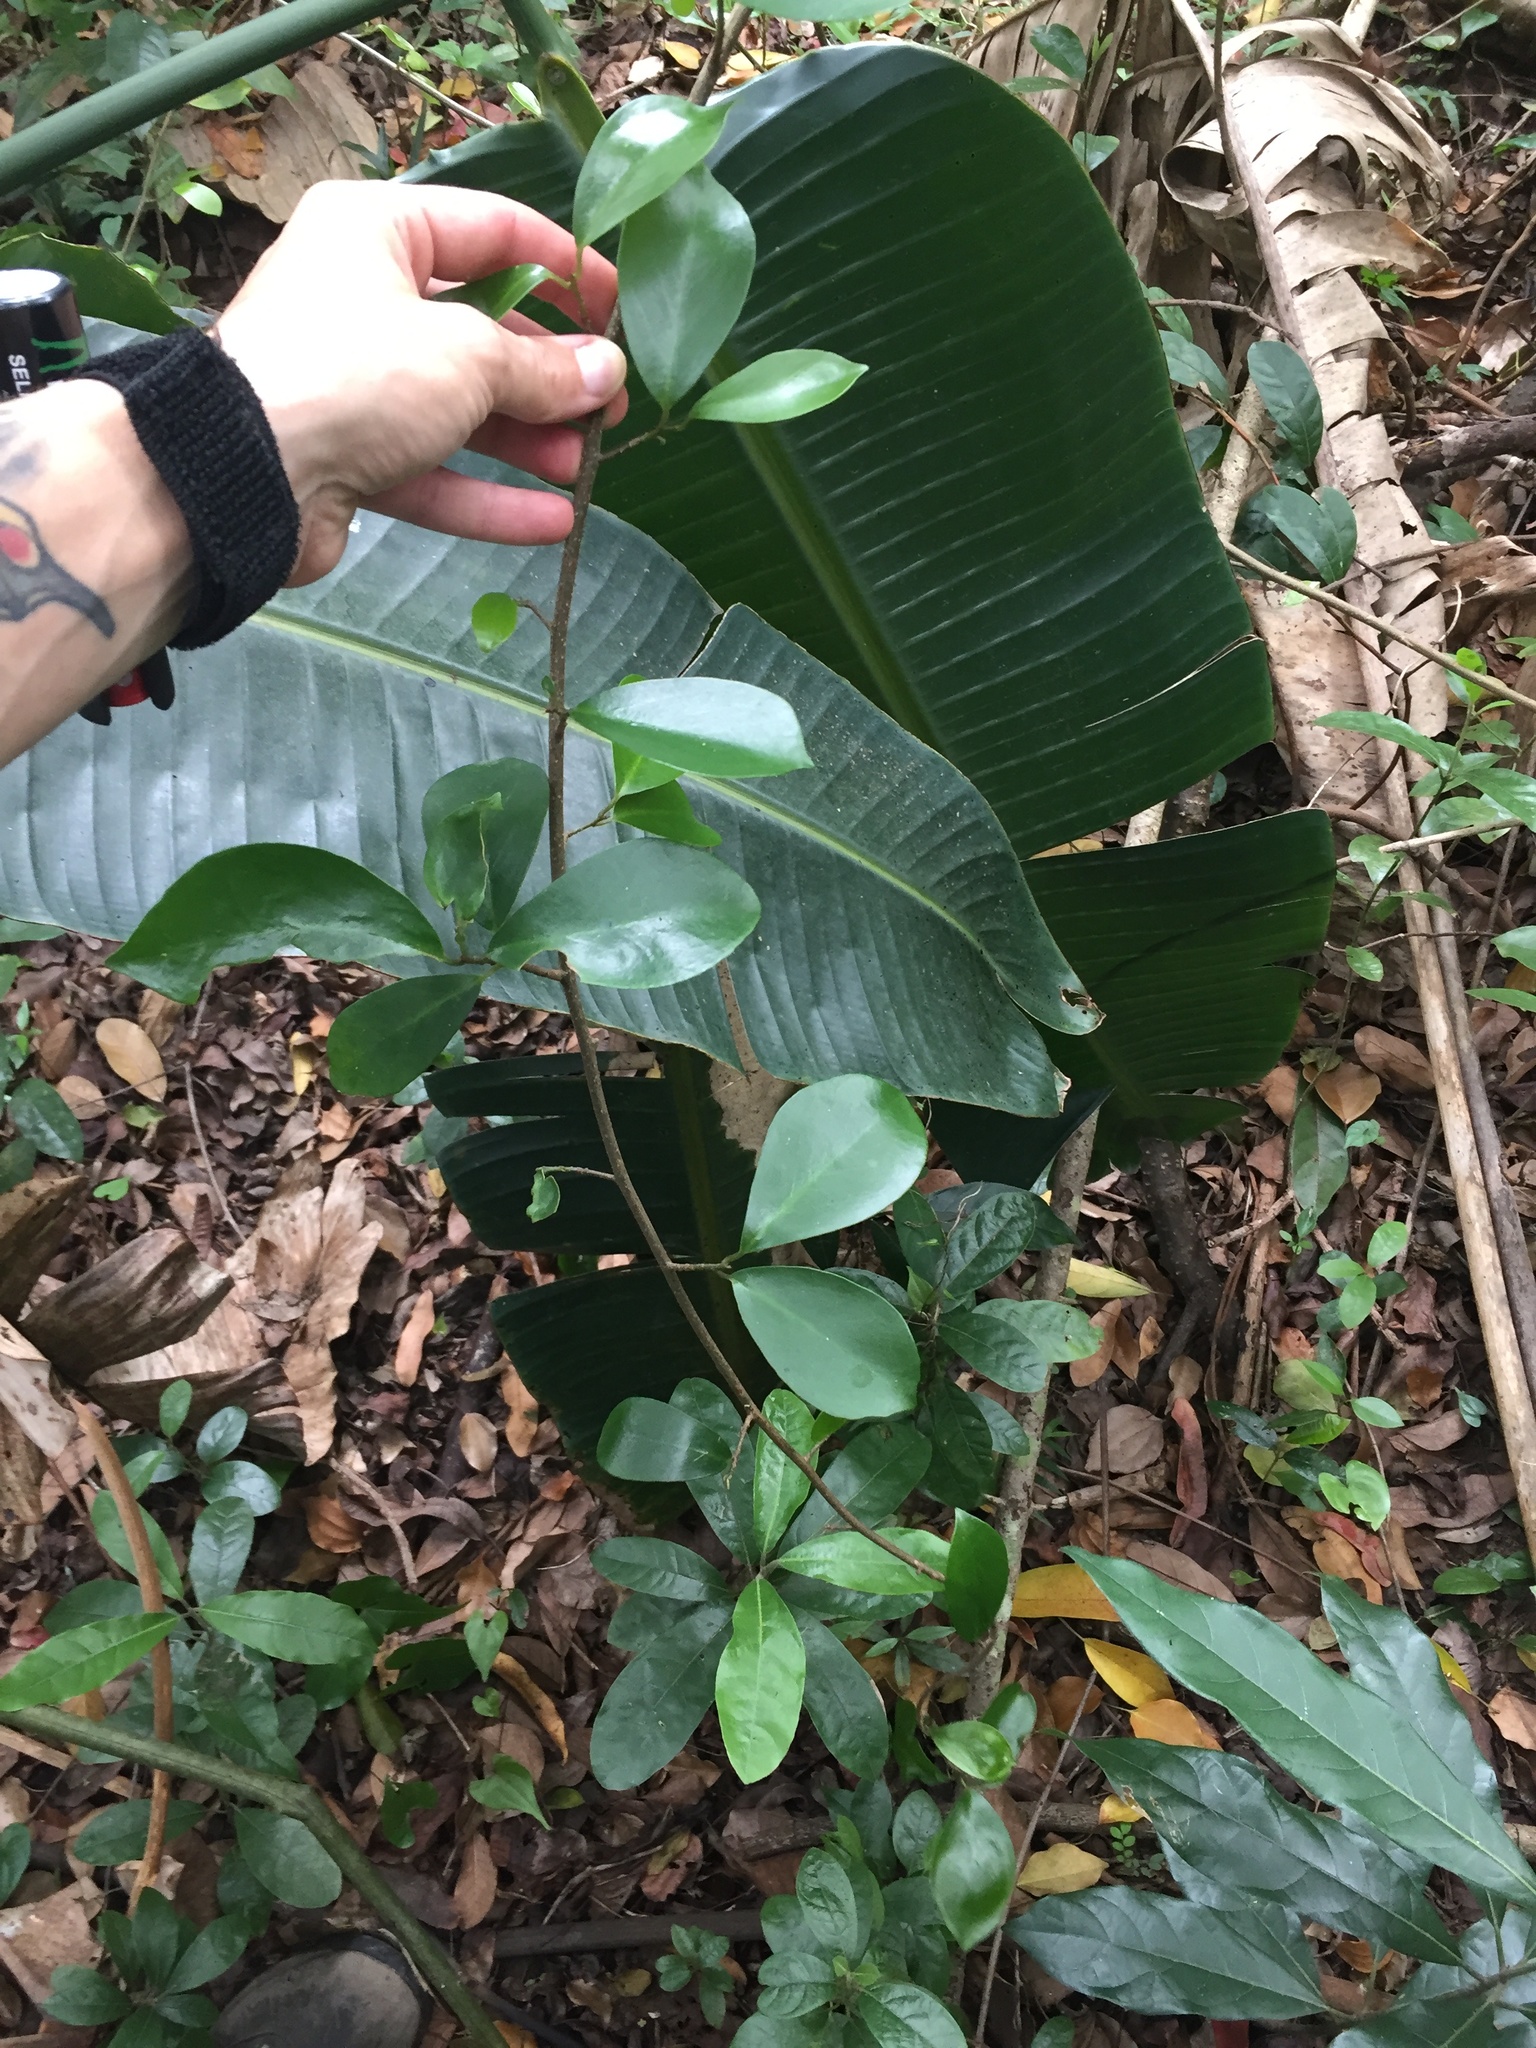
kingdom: Plantae
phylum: Tracheophyta
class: Magnoliopsida
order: Ericales
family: Primulaceae
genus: Embelia
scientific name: Embelia ruminata
